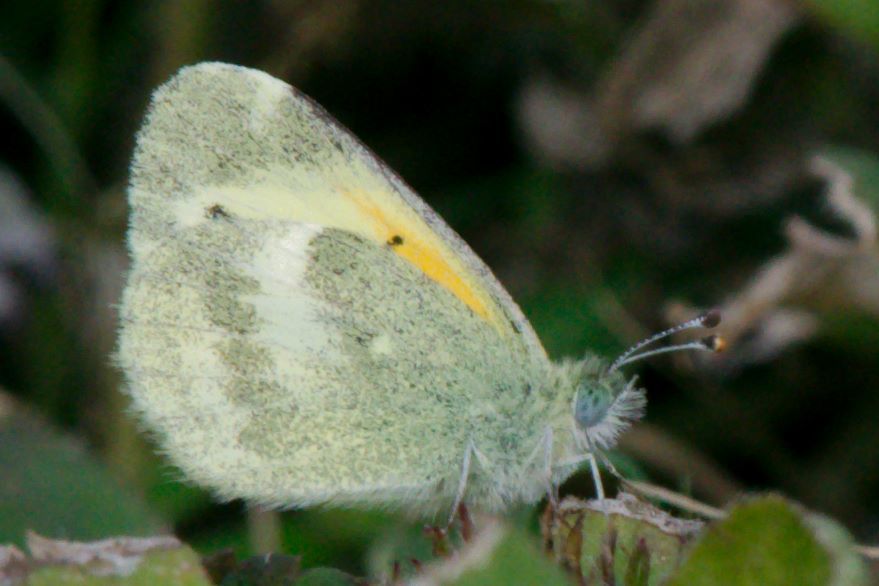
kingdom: Animalia
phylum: Arthropoda
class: Insecta
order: Lepidoptera
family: Pieridae
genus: Nathalis
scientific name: Nathalis iole
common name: Dainty sulphur
